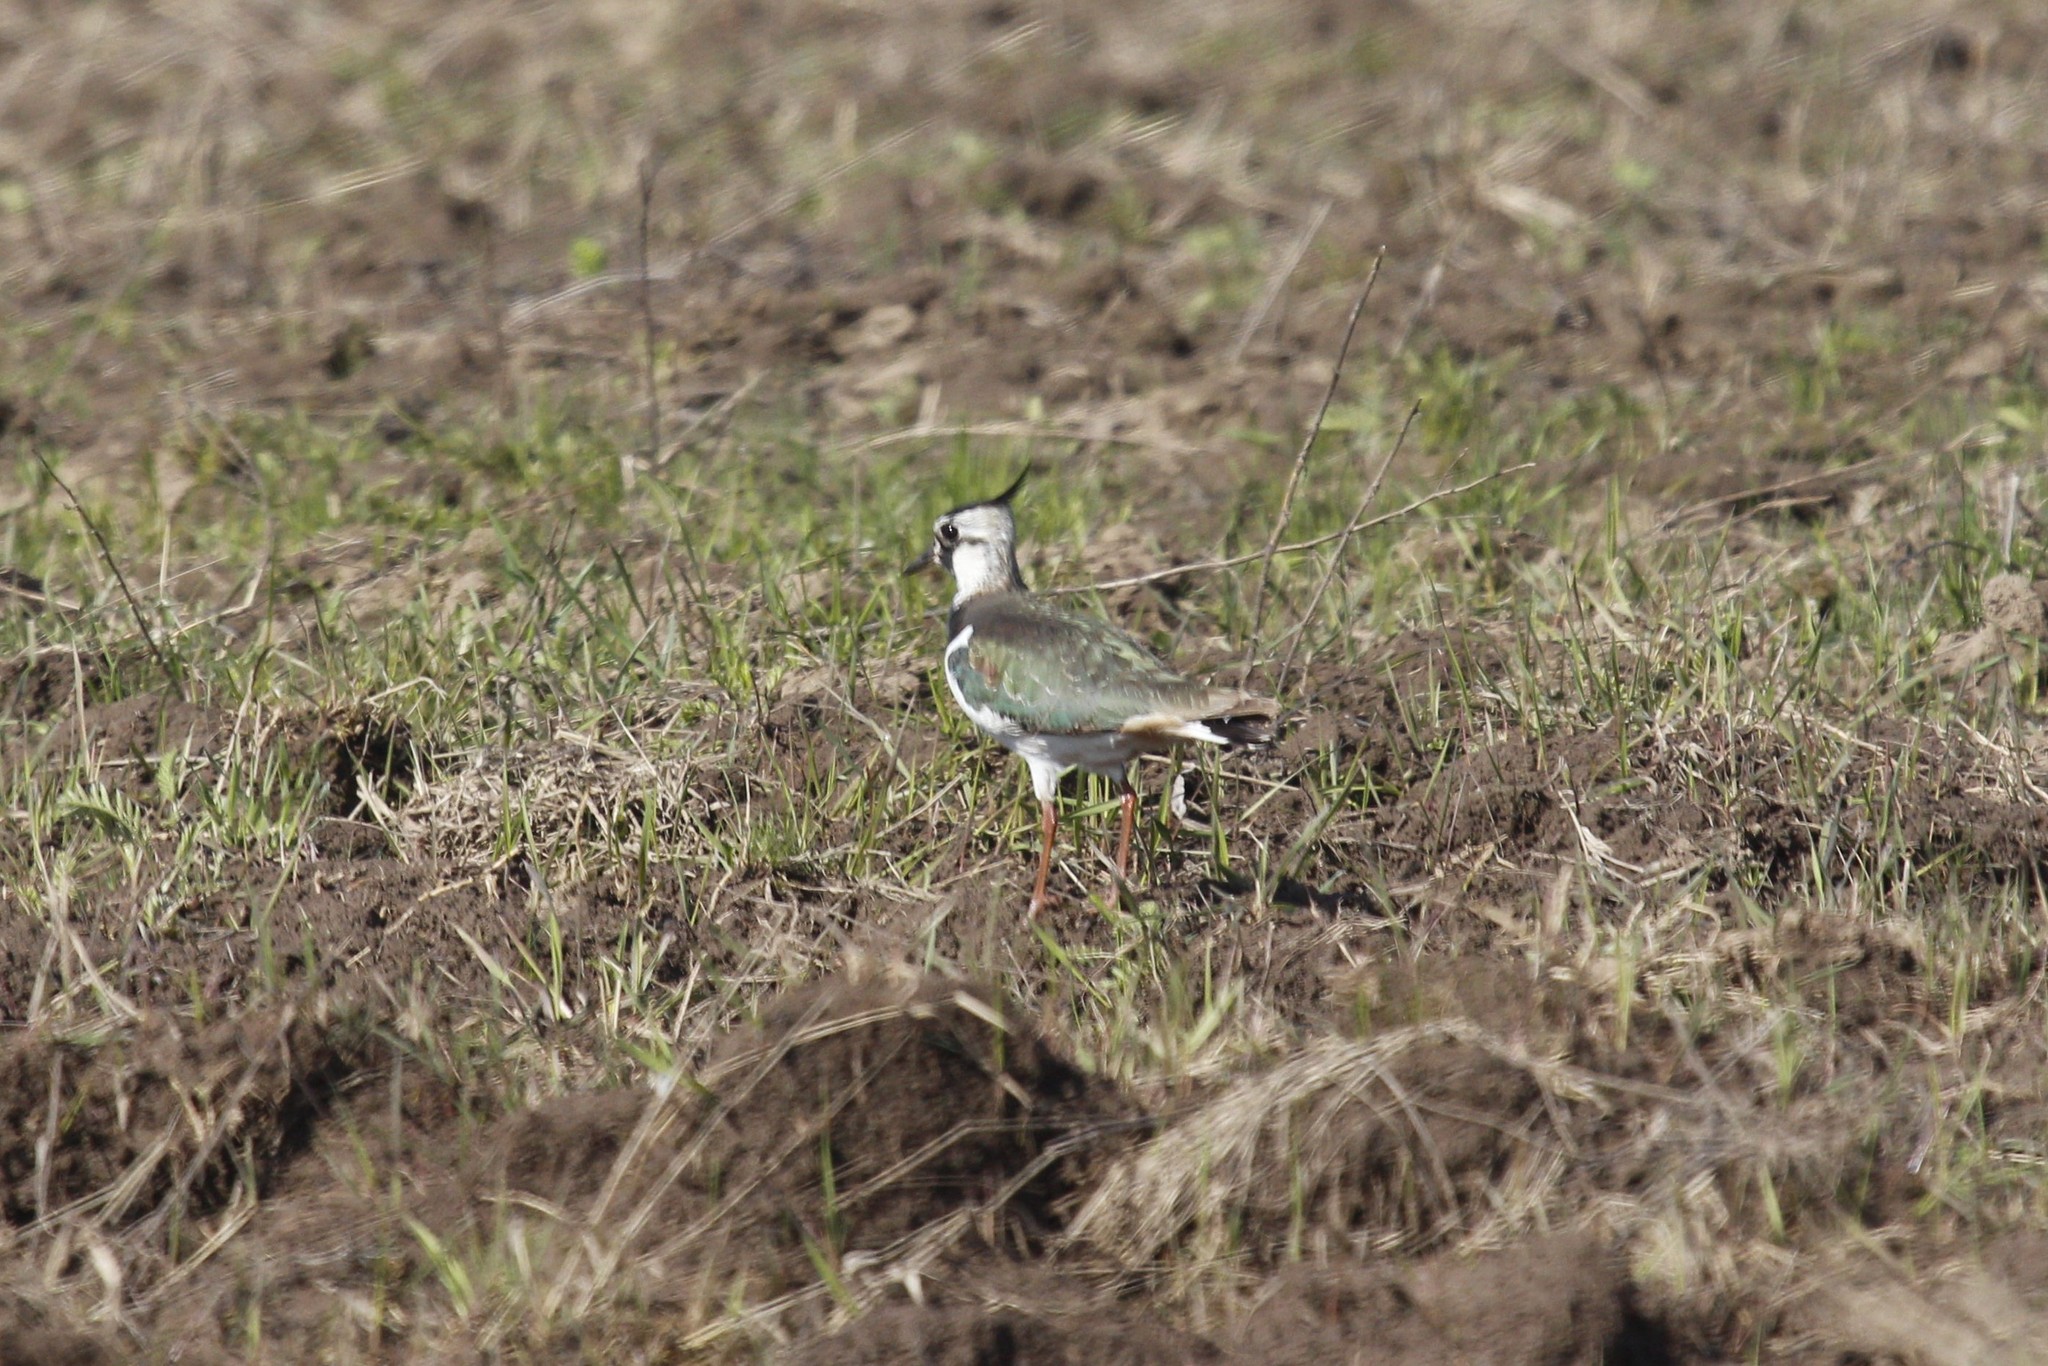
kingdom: Animalia
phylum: Chordata
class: Aves
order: Charadriiformes
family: Charadriidae
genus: Vanellus
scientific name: Vanellus vanellus
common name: Northern lapwing
